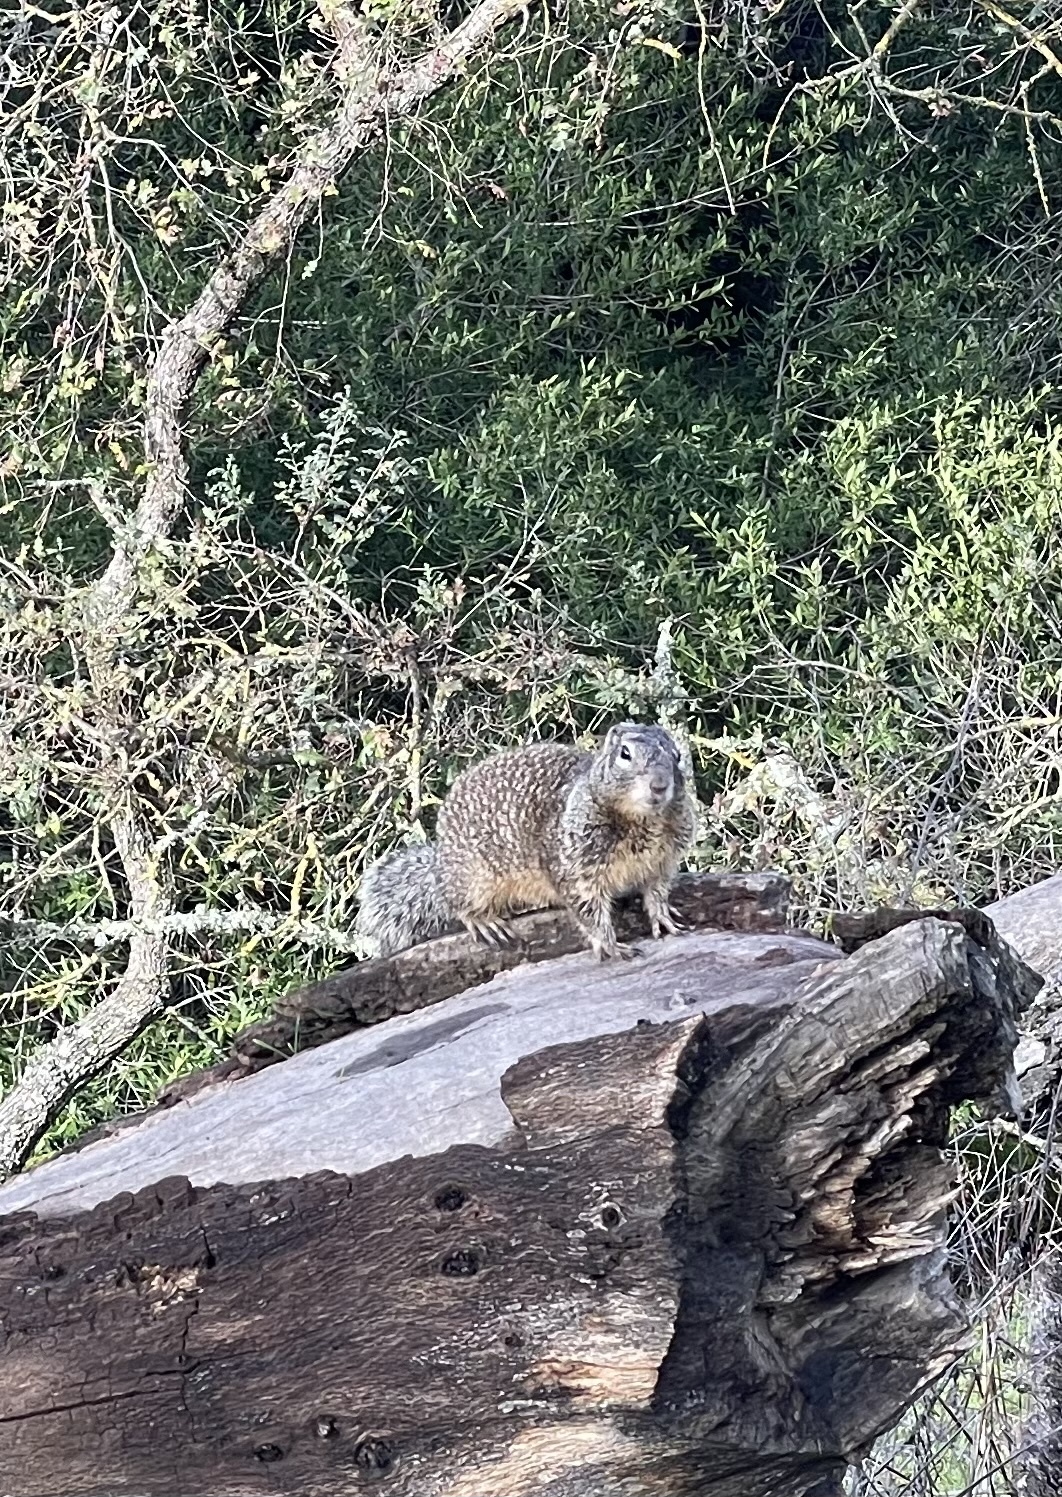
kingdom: Animalia
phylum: Chordata
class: Mammalia
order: Rodentia
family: Sciuridae
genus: Otospermophilus
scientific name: Otospermophilus beecheyi
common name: California ground squirrel
